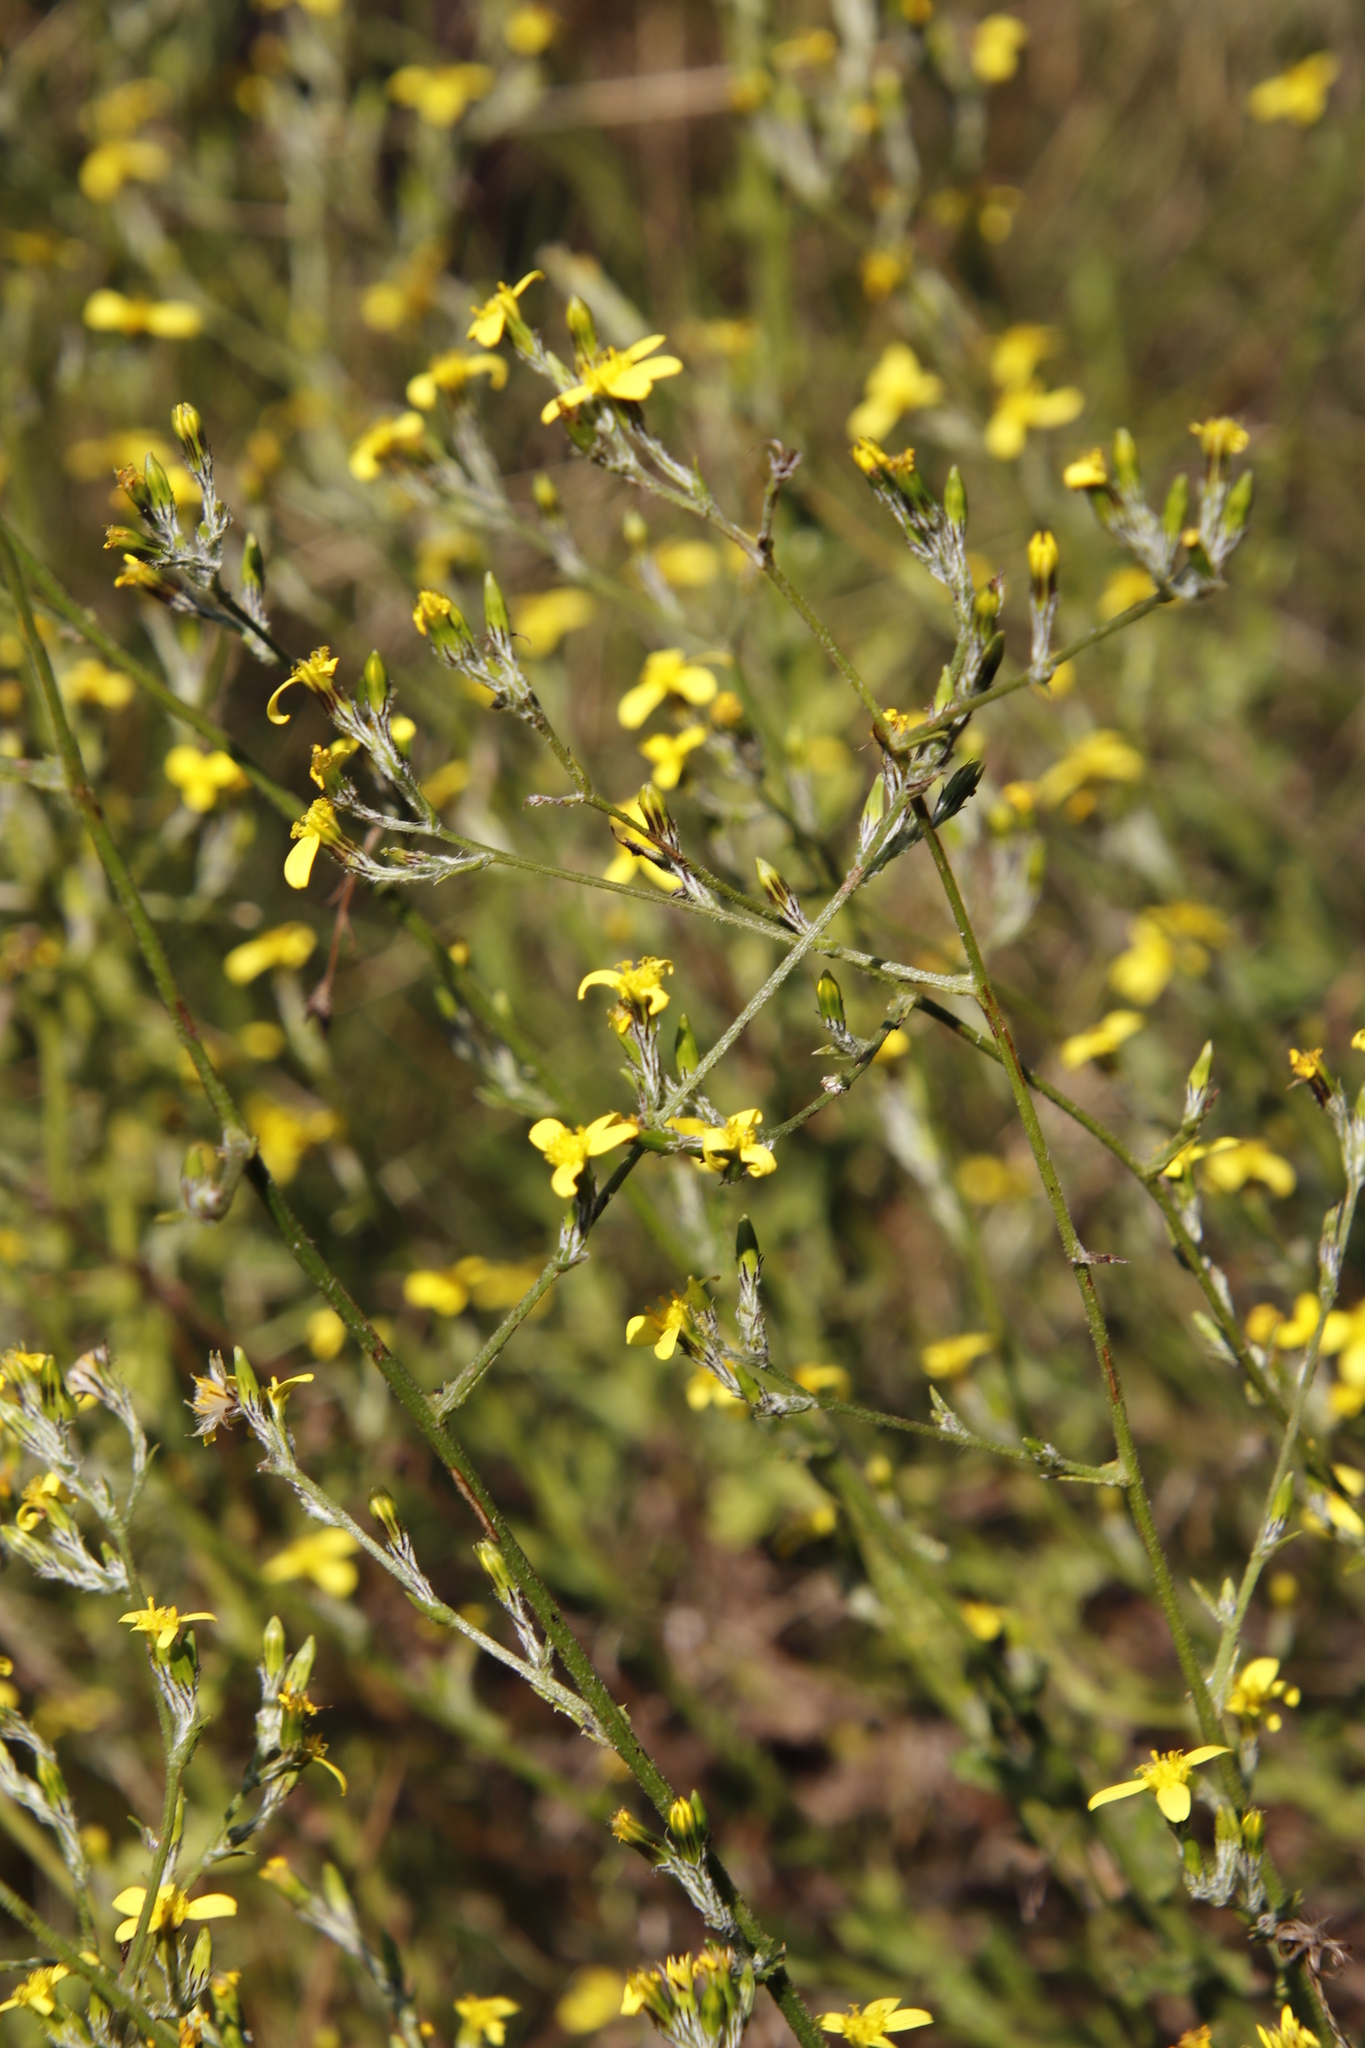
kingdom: Plantae
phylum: Tracheophyta
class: Magnoliopsida
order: Asterales
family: Asteraceae
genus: Senecio
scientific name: Senecio pubigerus
